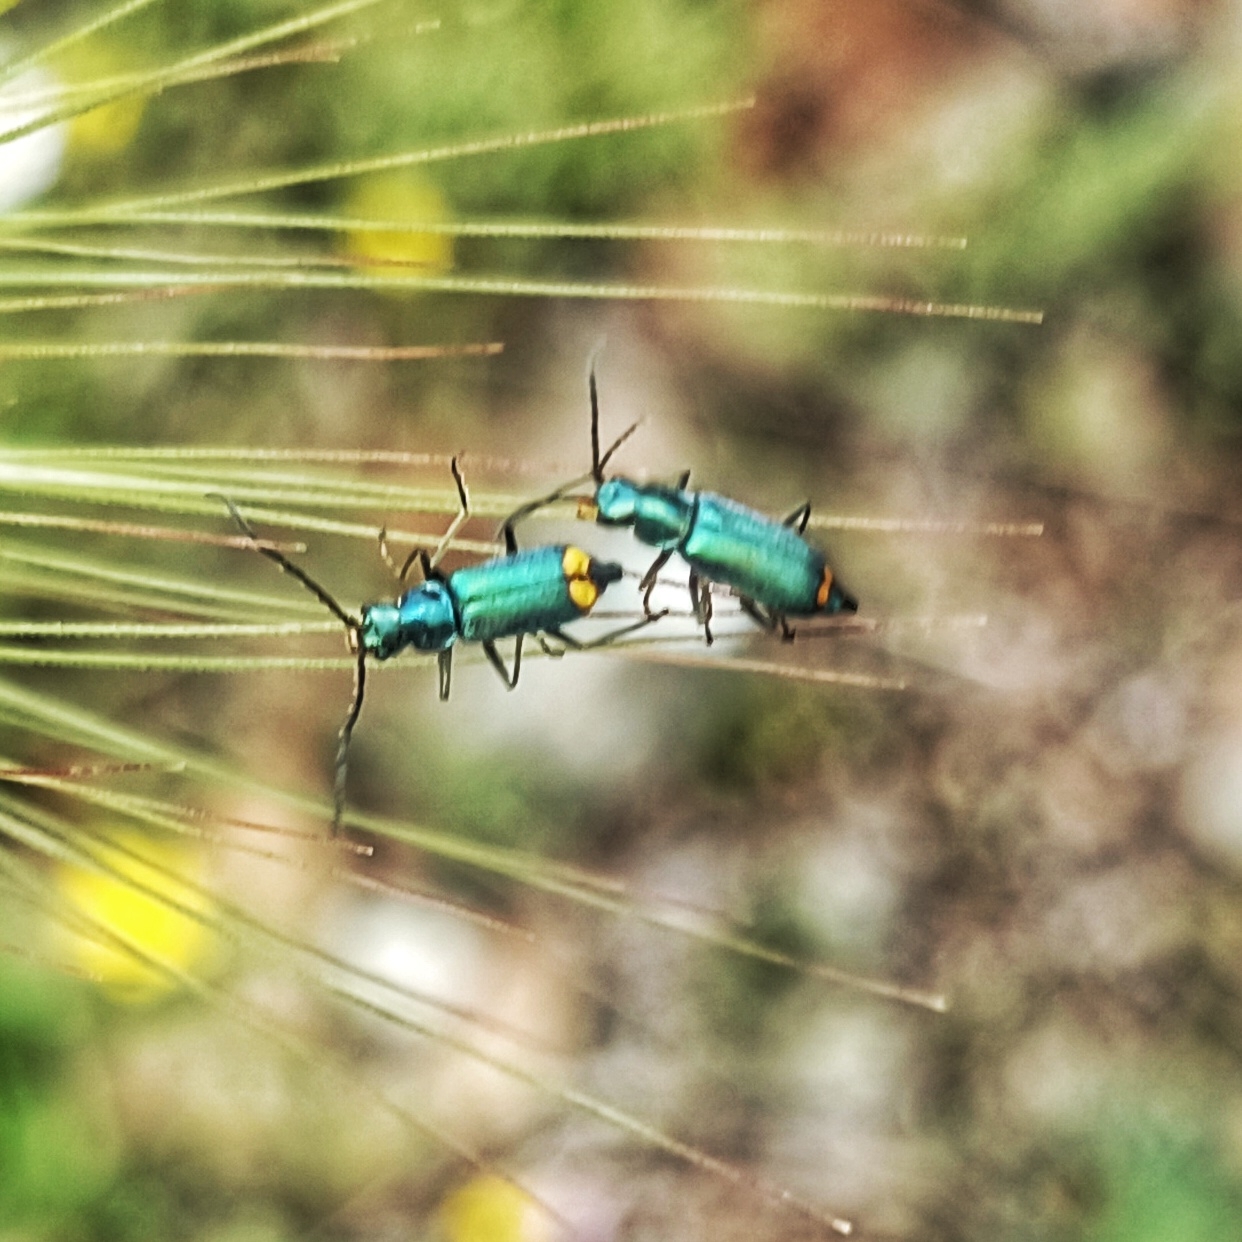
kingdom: Animalia
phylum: Arthropoda
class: Insecta
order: Coleoptera
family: Malachiidae
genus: Clanoptilus
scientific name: Clanoptilus calabrus
